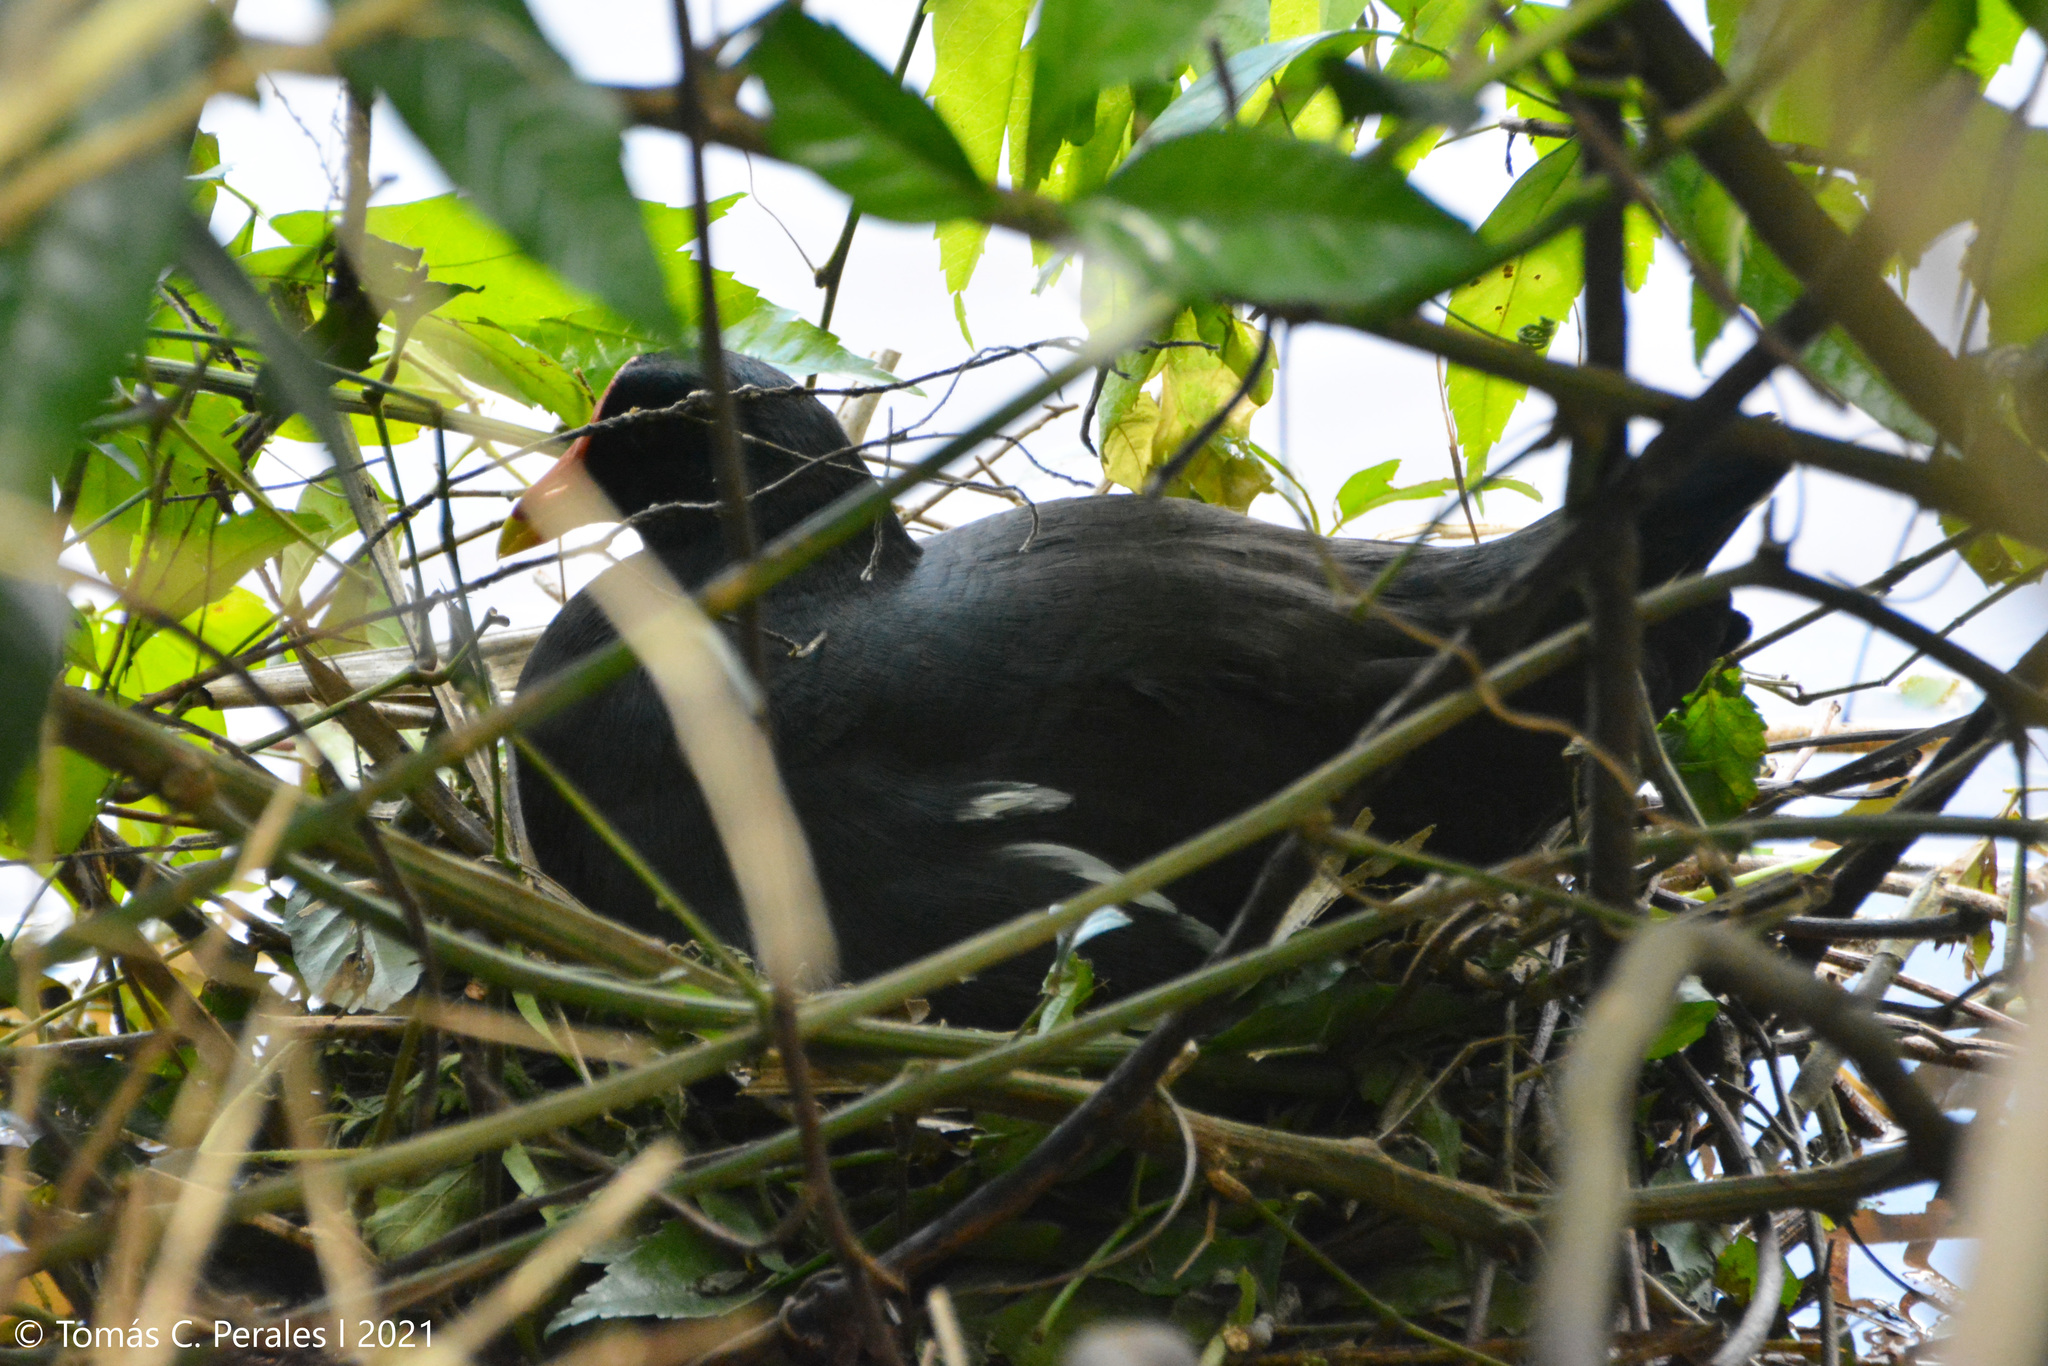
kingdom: Animalia
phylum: Chordata
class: Aves
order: Gruiformes
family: Rallidae
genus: Gallinula
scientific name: Gallinula chloropus
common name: Common moorhen
